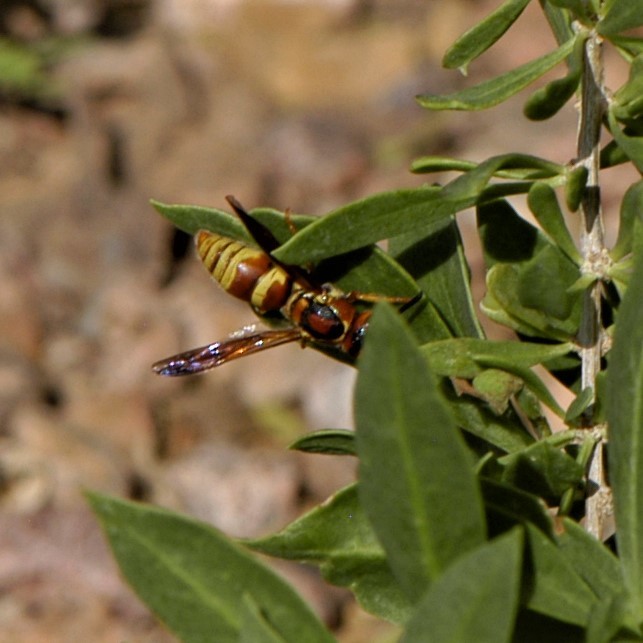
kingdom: Animalia
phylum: Arthropoda
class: Insecta
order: Hymenoptera
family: Eumenidae
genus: Euodynerus
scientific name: Euodynerus pratensis
